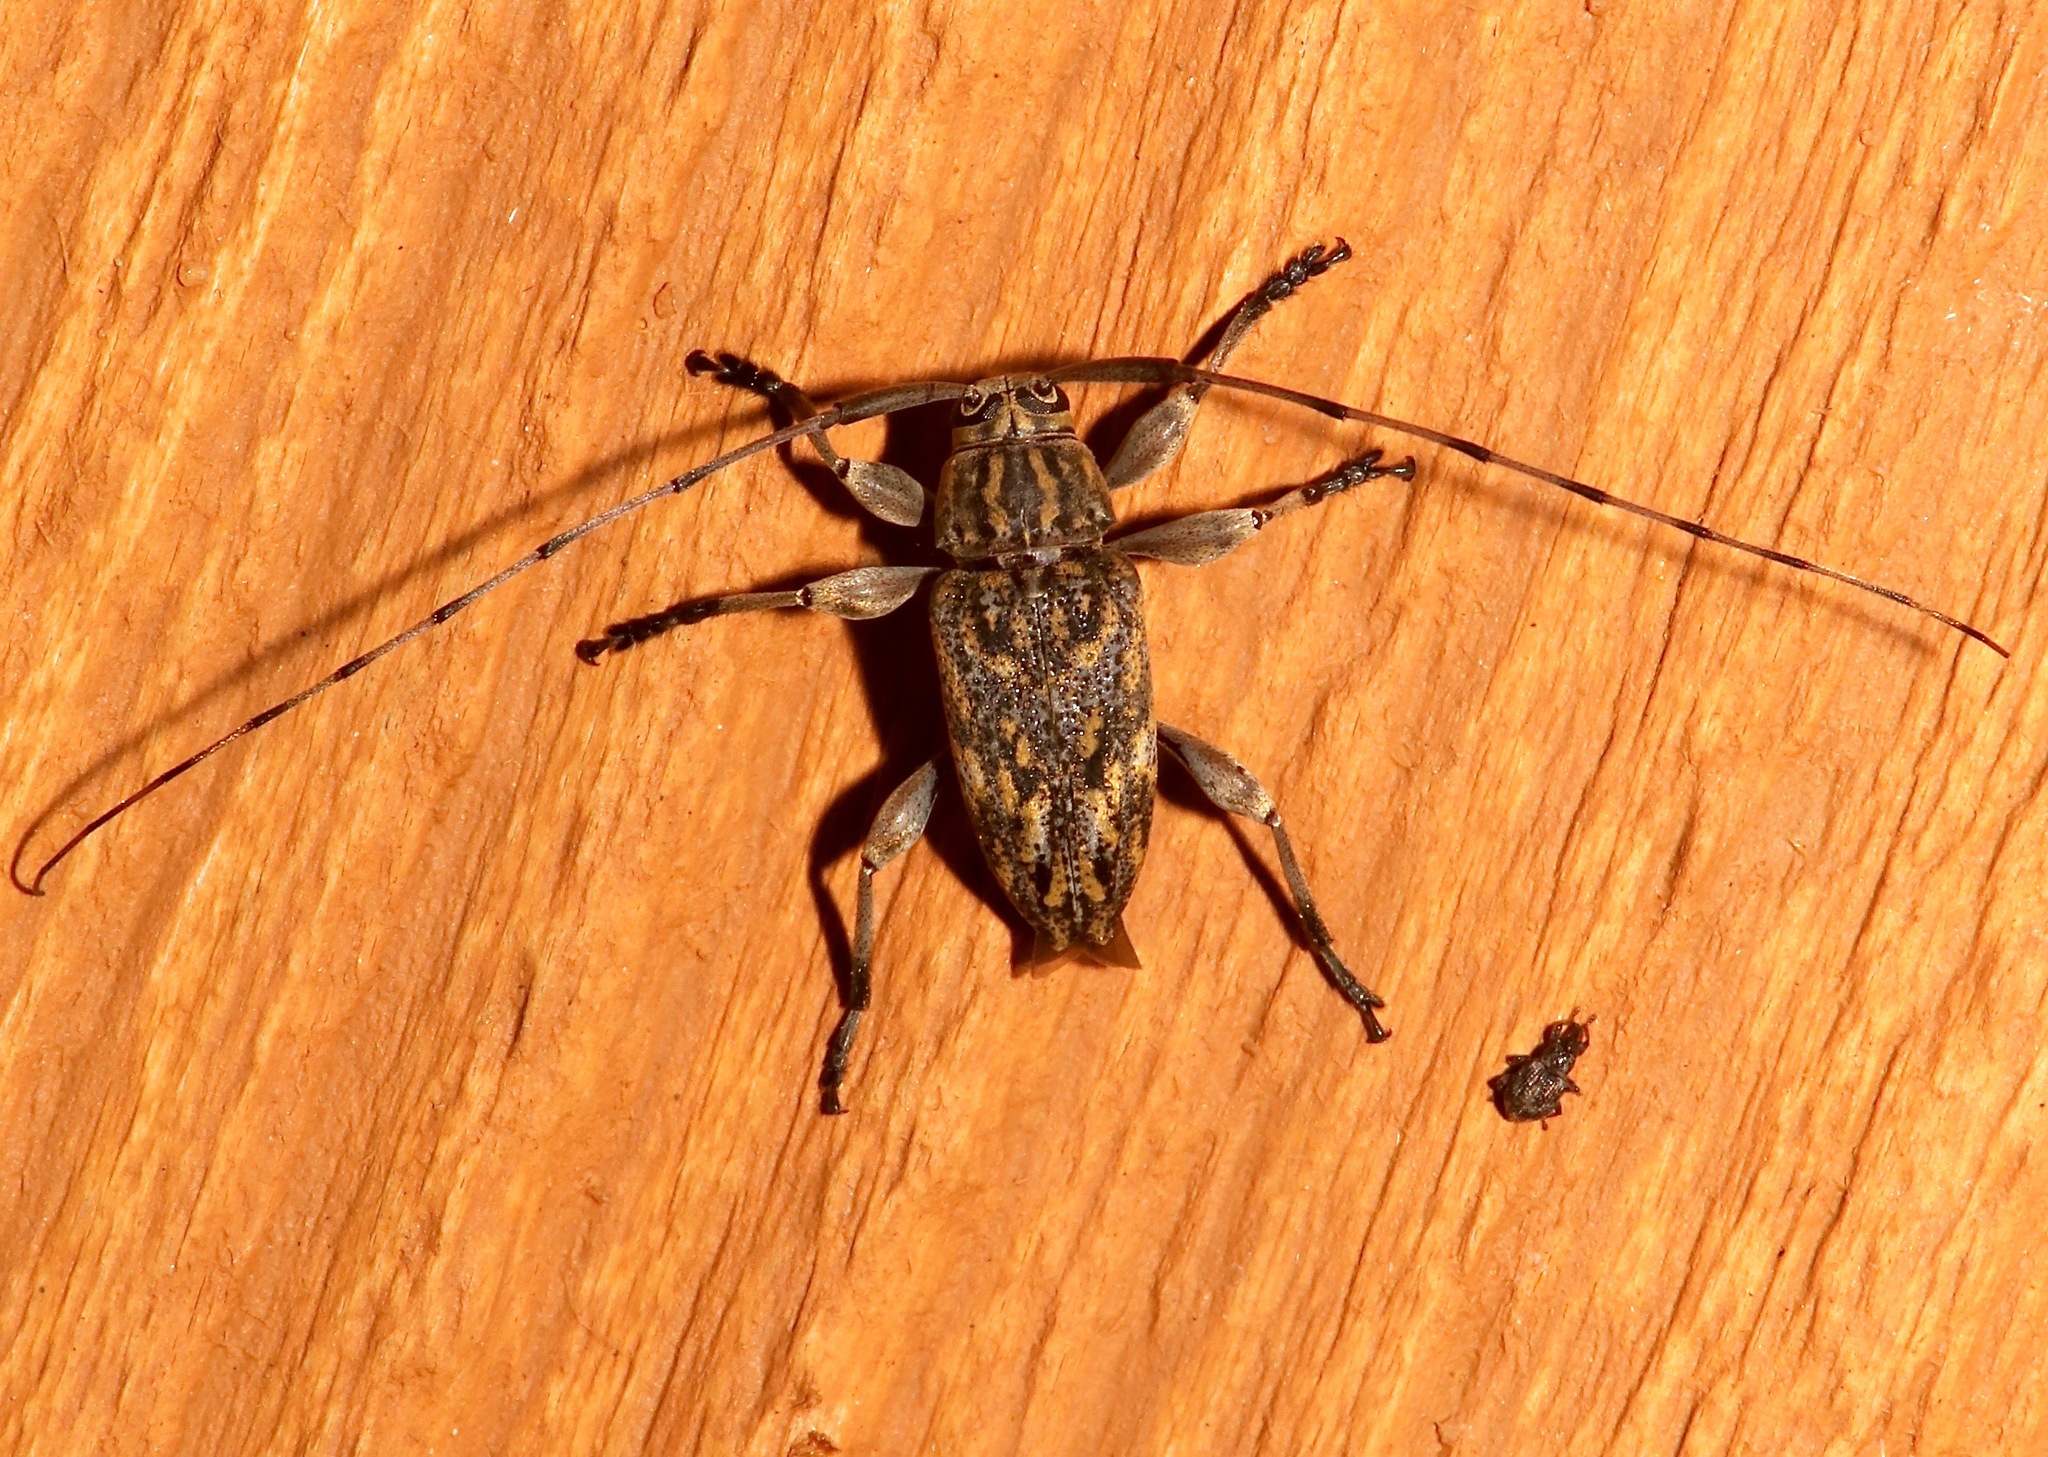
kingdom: Animalia
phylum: Arthropoda
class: Insecta
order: Coleoptera
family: Cerambycidae
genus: Atrypanius
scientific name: Atrypanius haldemani
